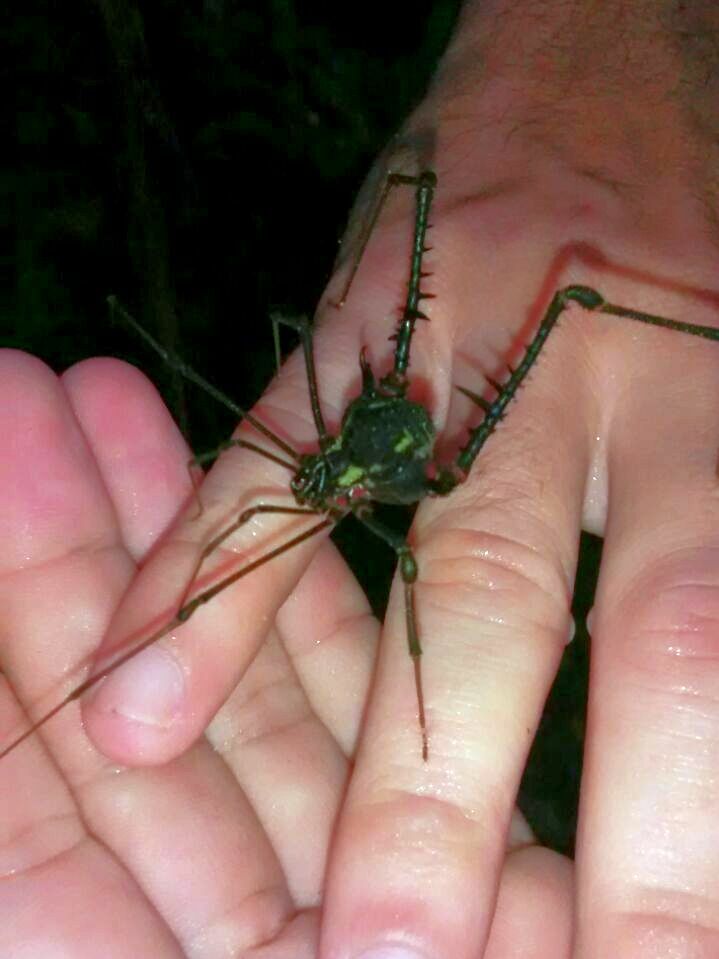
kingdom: Animalia
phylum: Arthropoda
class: Arachnida
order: Opiliones
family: Gonyleptidae
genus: Geraeocormobius
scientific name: Geraeocormobius rohri
